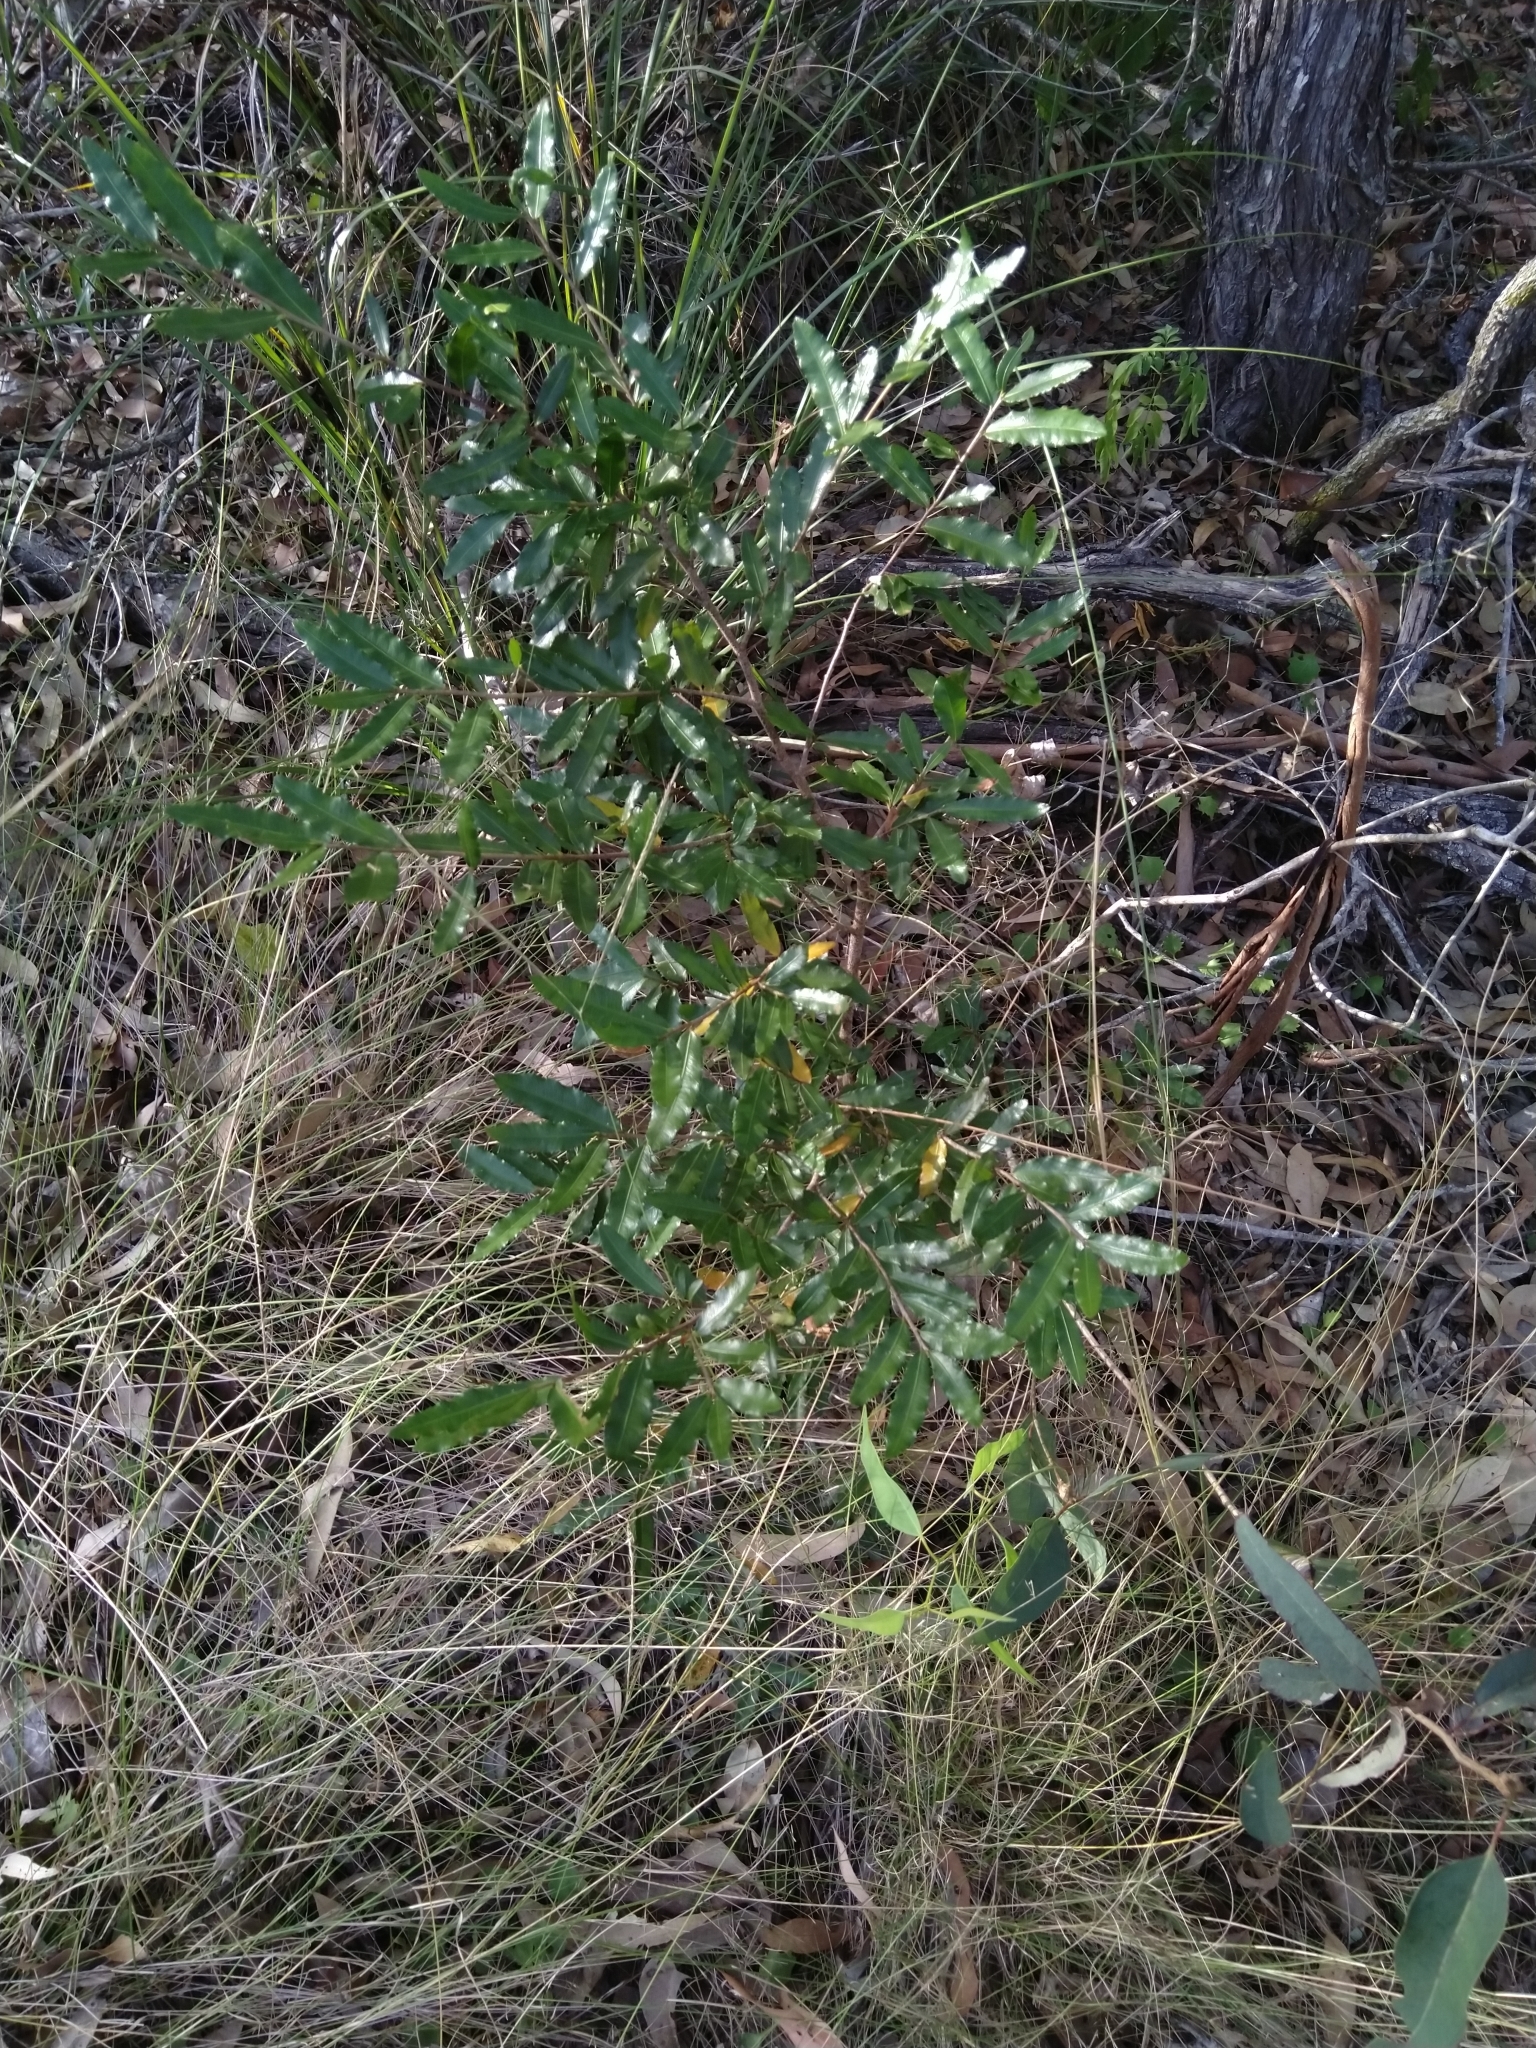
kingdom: Plantae
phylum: Tracheophyta
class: Magnoliopsida
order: Malpighiales
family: Ochnaceae
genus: Ochna
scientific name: Ochna serrulata
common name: Mickey mouse plant
